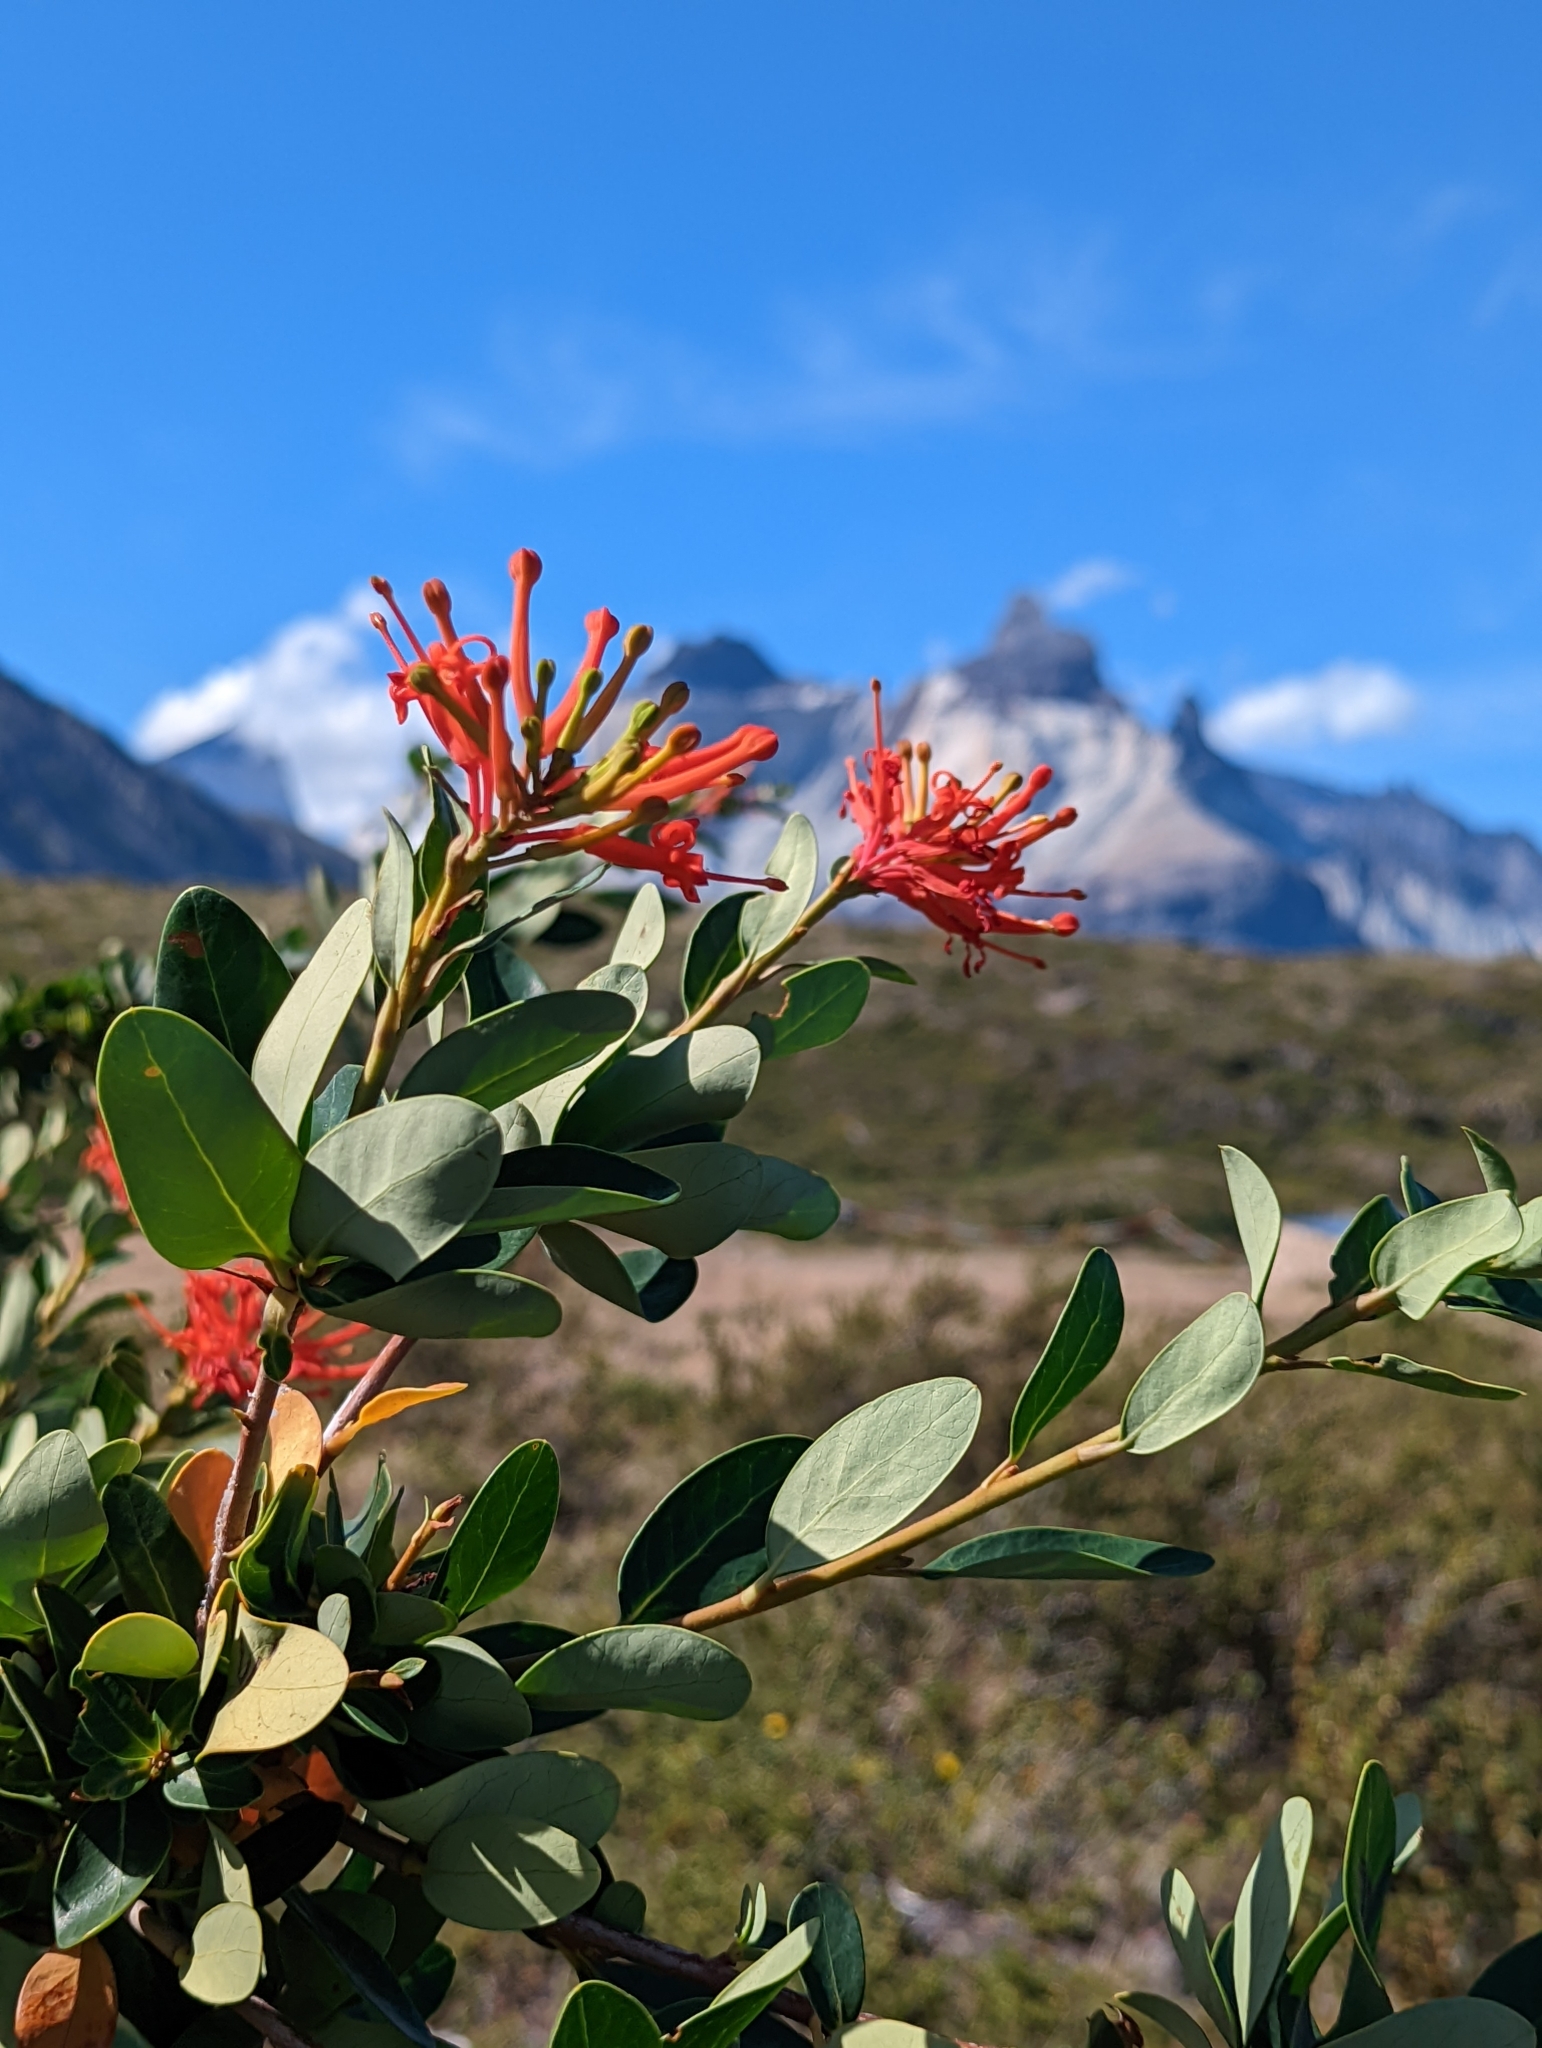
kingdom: Plantae
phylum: Tracheophyta
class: Magnoliopsida
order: Proteales
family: Proteaceae
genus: Embothrium
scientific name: Embothrium coccineum
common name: Chilean firebush
